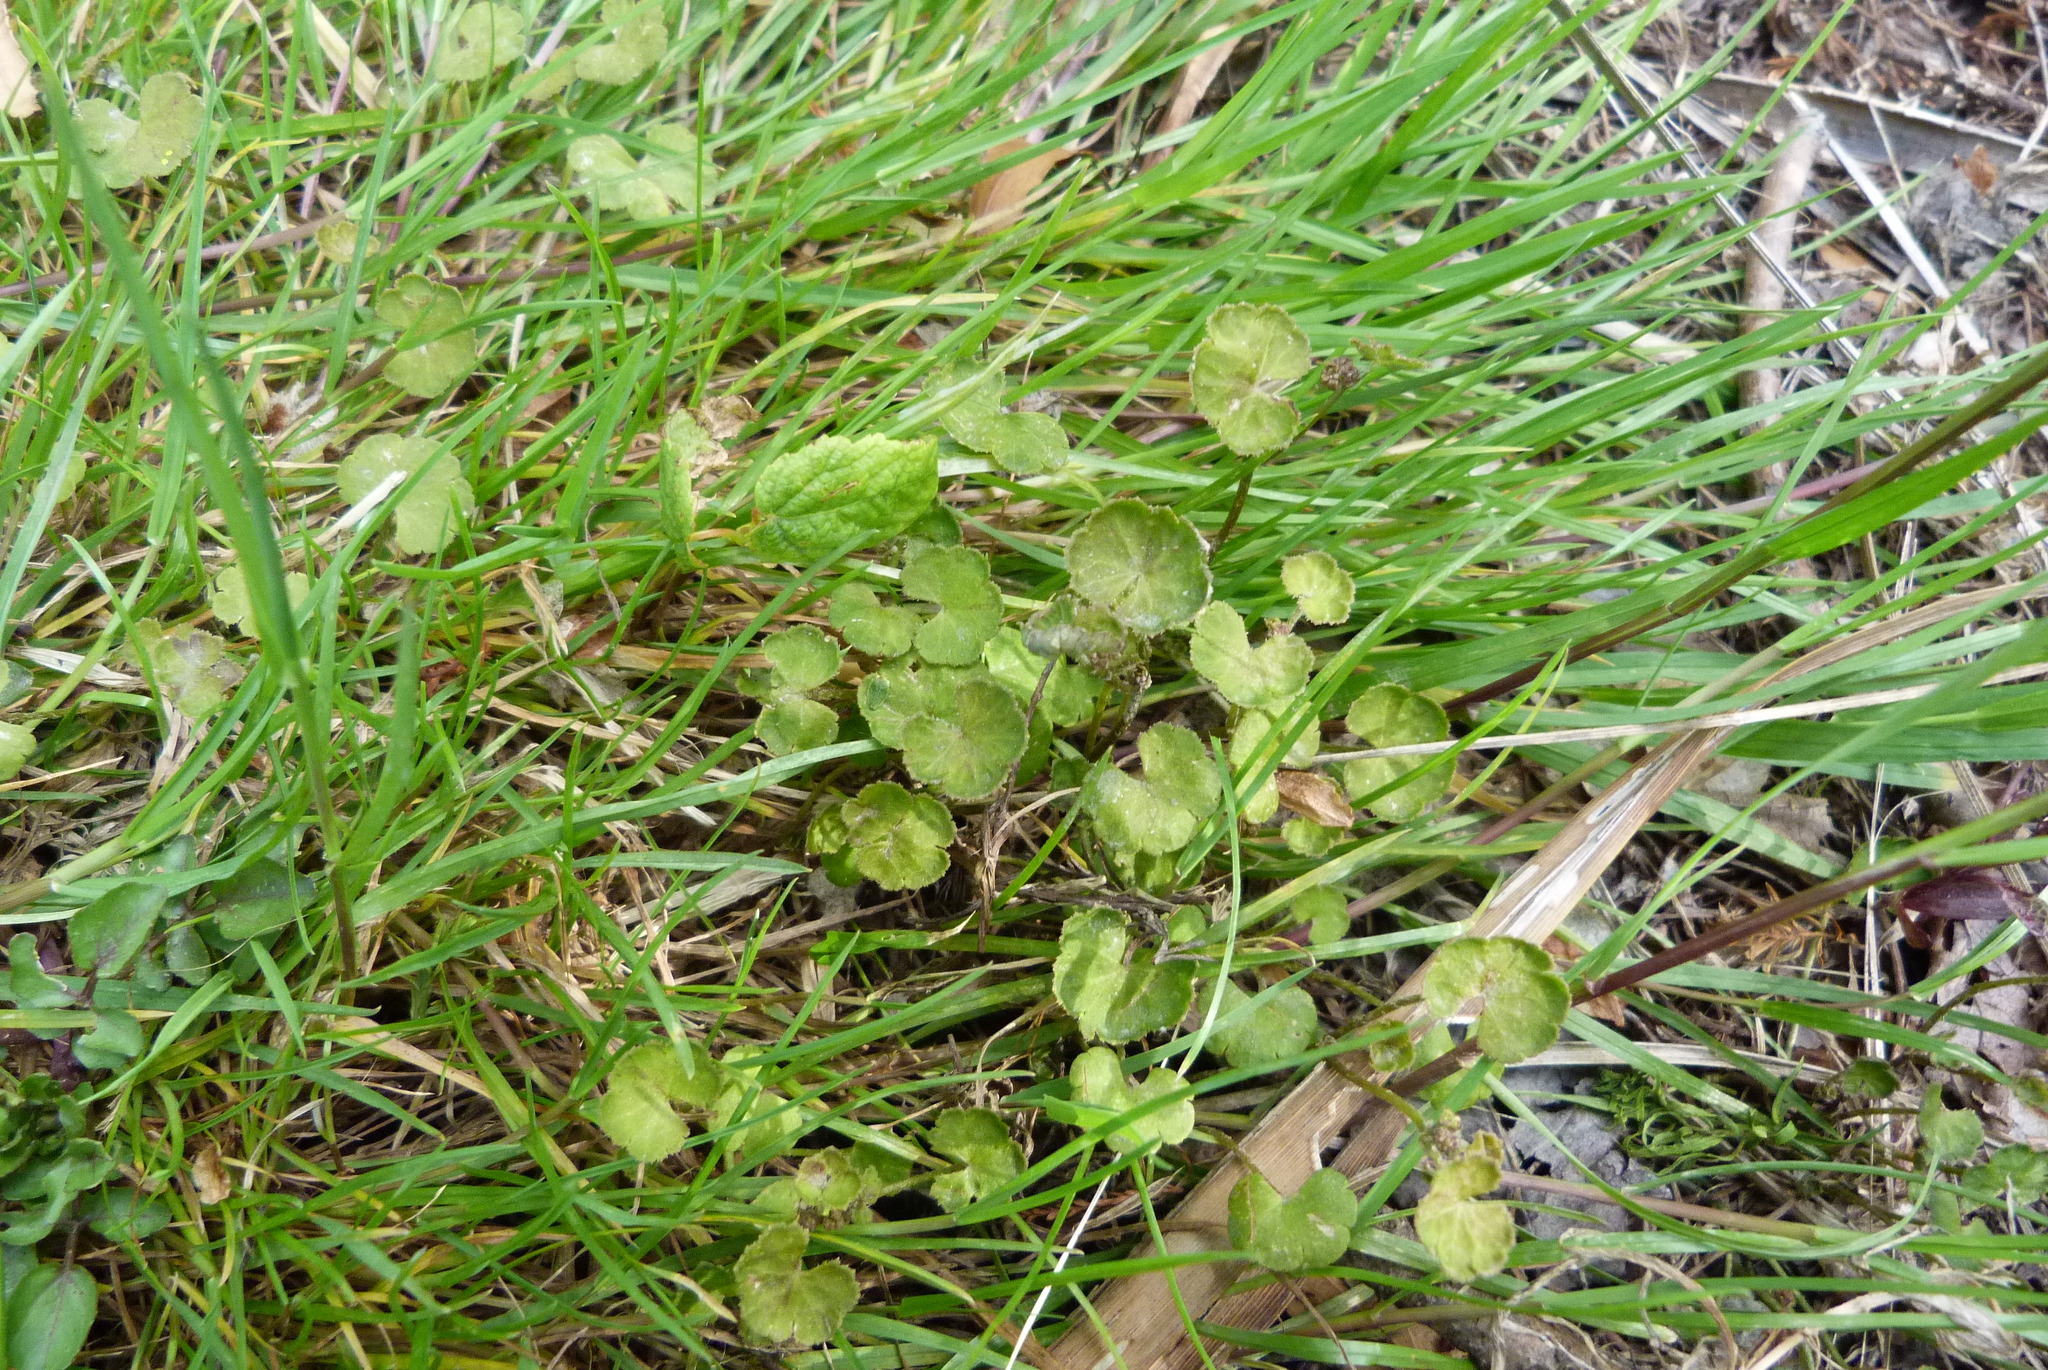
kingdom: Plantae
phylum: Tracheophyta
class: Magnoliopsida
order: Apiales
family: Araliaceae
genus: Hydrocotyle
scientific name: Hydrocotyle novae-zeelandiae
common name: New zealand pennywort
